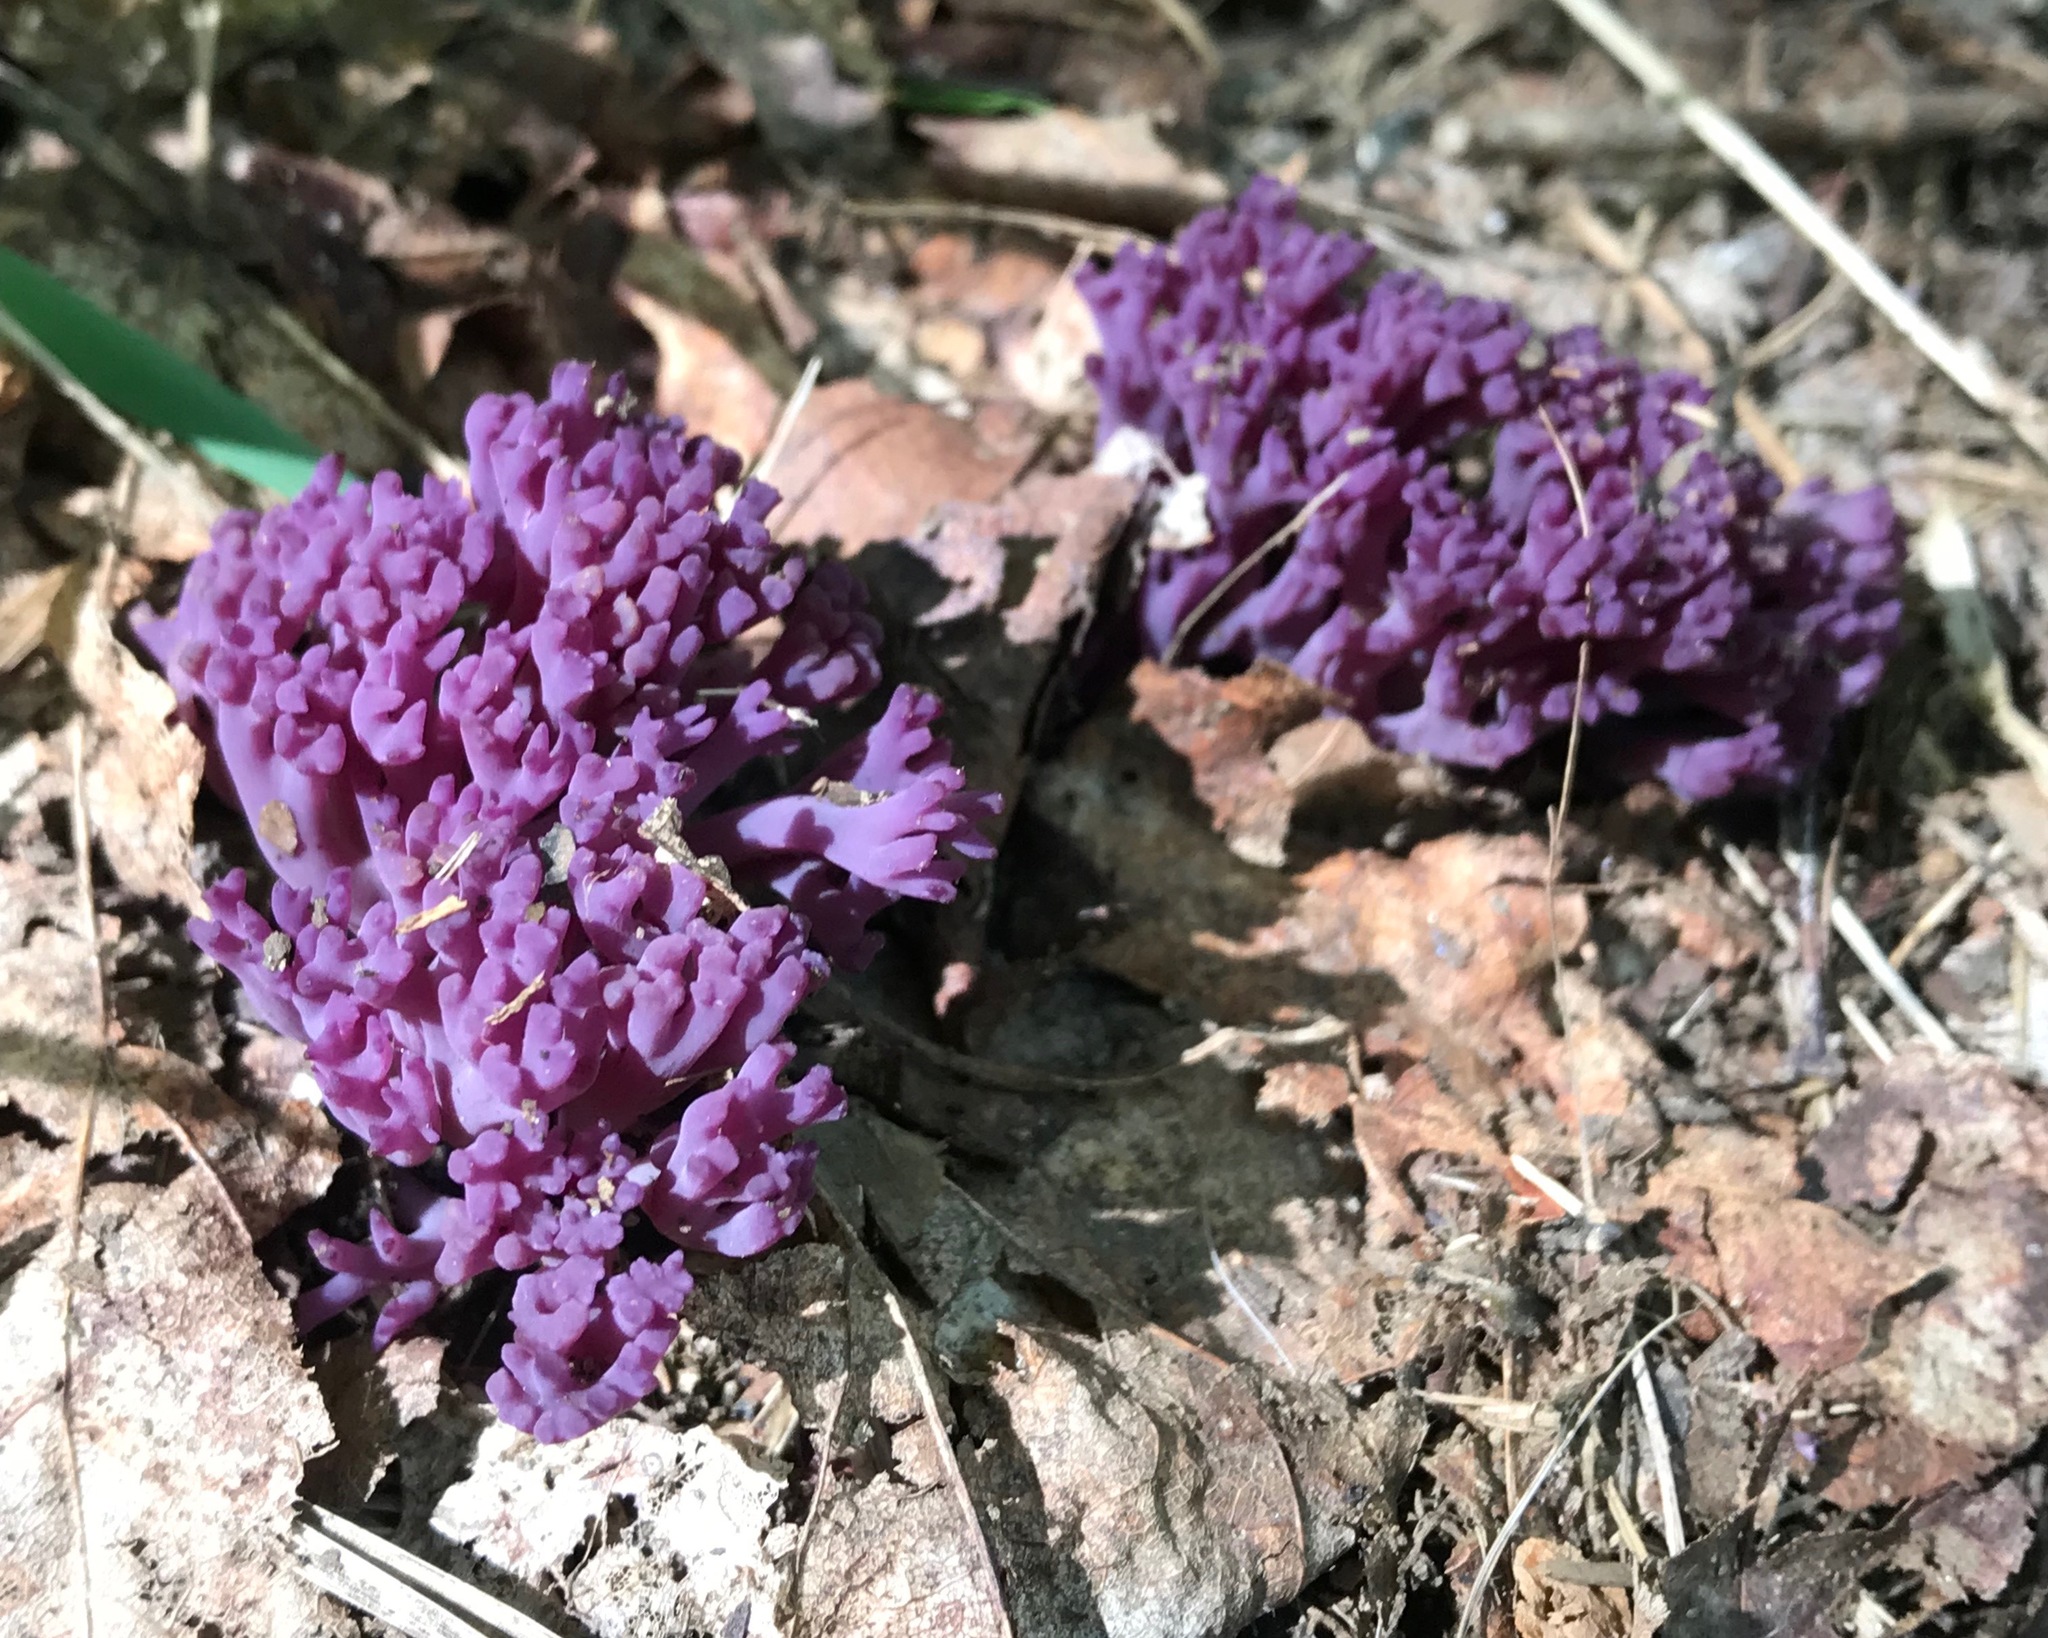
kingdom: Fungi
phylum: Basidiomycota
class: Agaricomycetes
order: Agaricales
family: Clavariaceae
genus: Clavaria
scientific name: Clavaria zollingeri
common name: Violet coral
